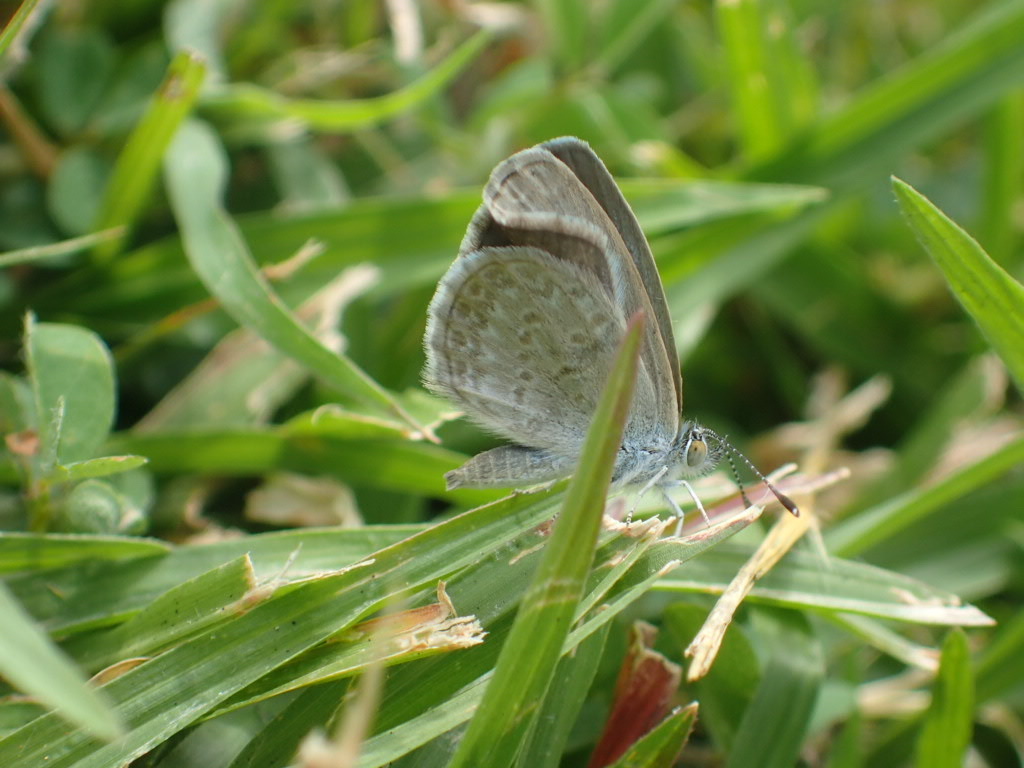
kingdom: Animalia
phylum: Arthropoda
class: Insecta
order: Lepidoptera
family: Lycaenidae
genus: Zizina
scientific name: Zizina otis
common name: Lesser grass blue
